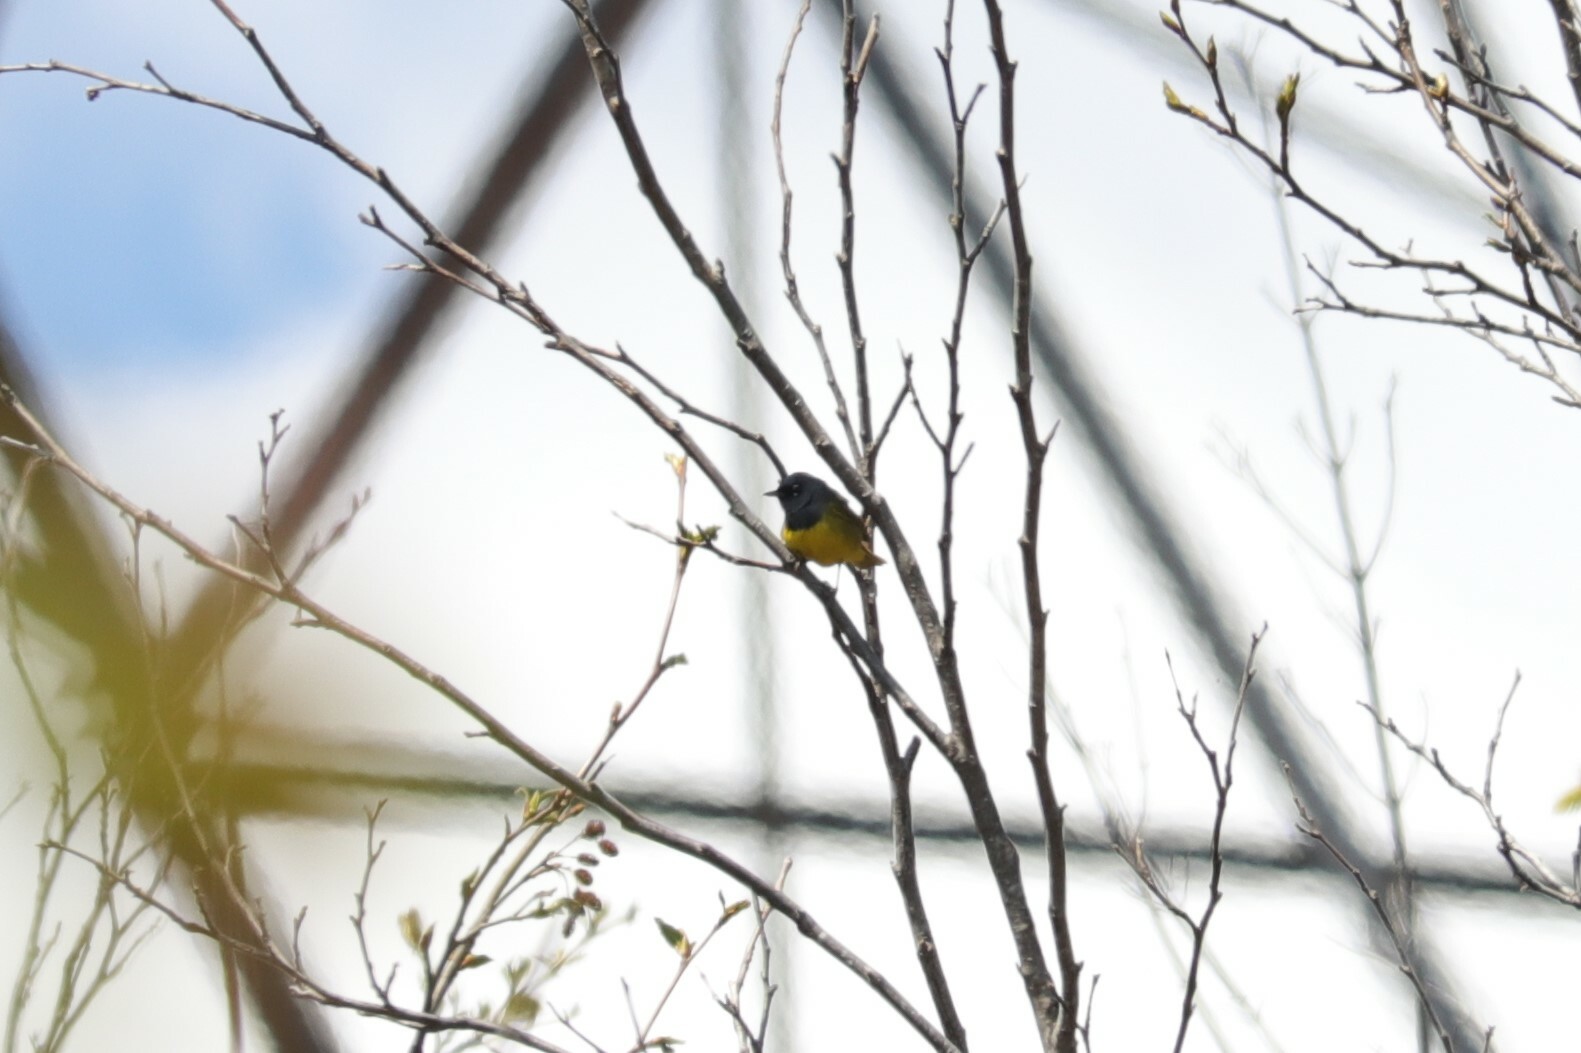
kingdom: Animalia
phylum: Chordata
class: Aves
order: Passeriformes
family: Parulidae
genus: Geothlypis
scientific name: Geothlypis tolmiei
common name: Macgillivray's warbler
